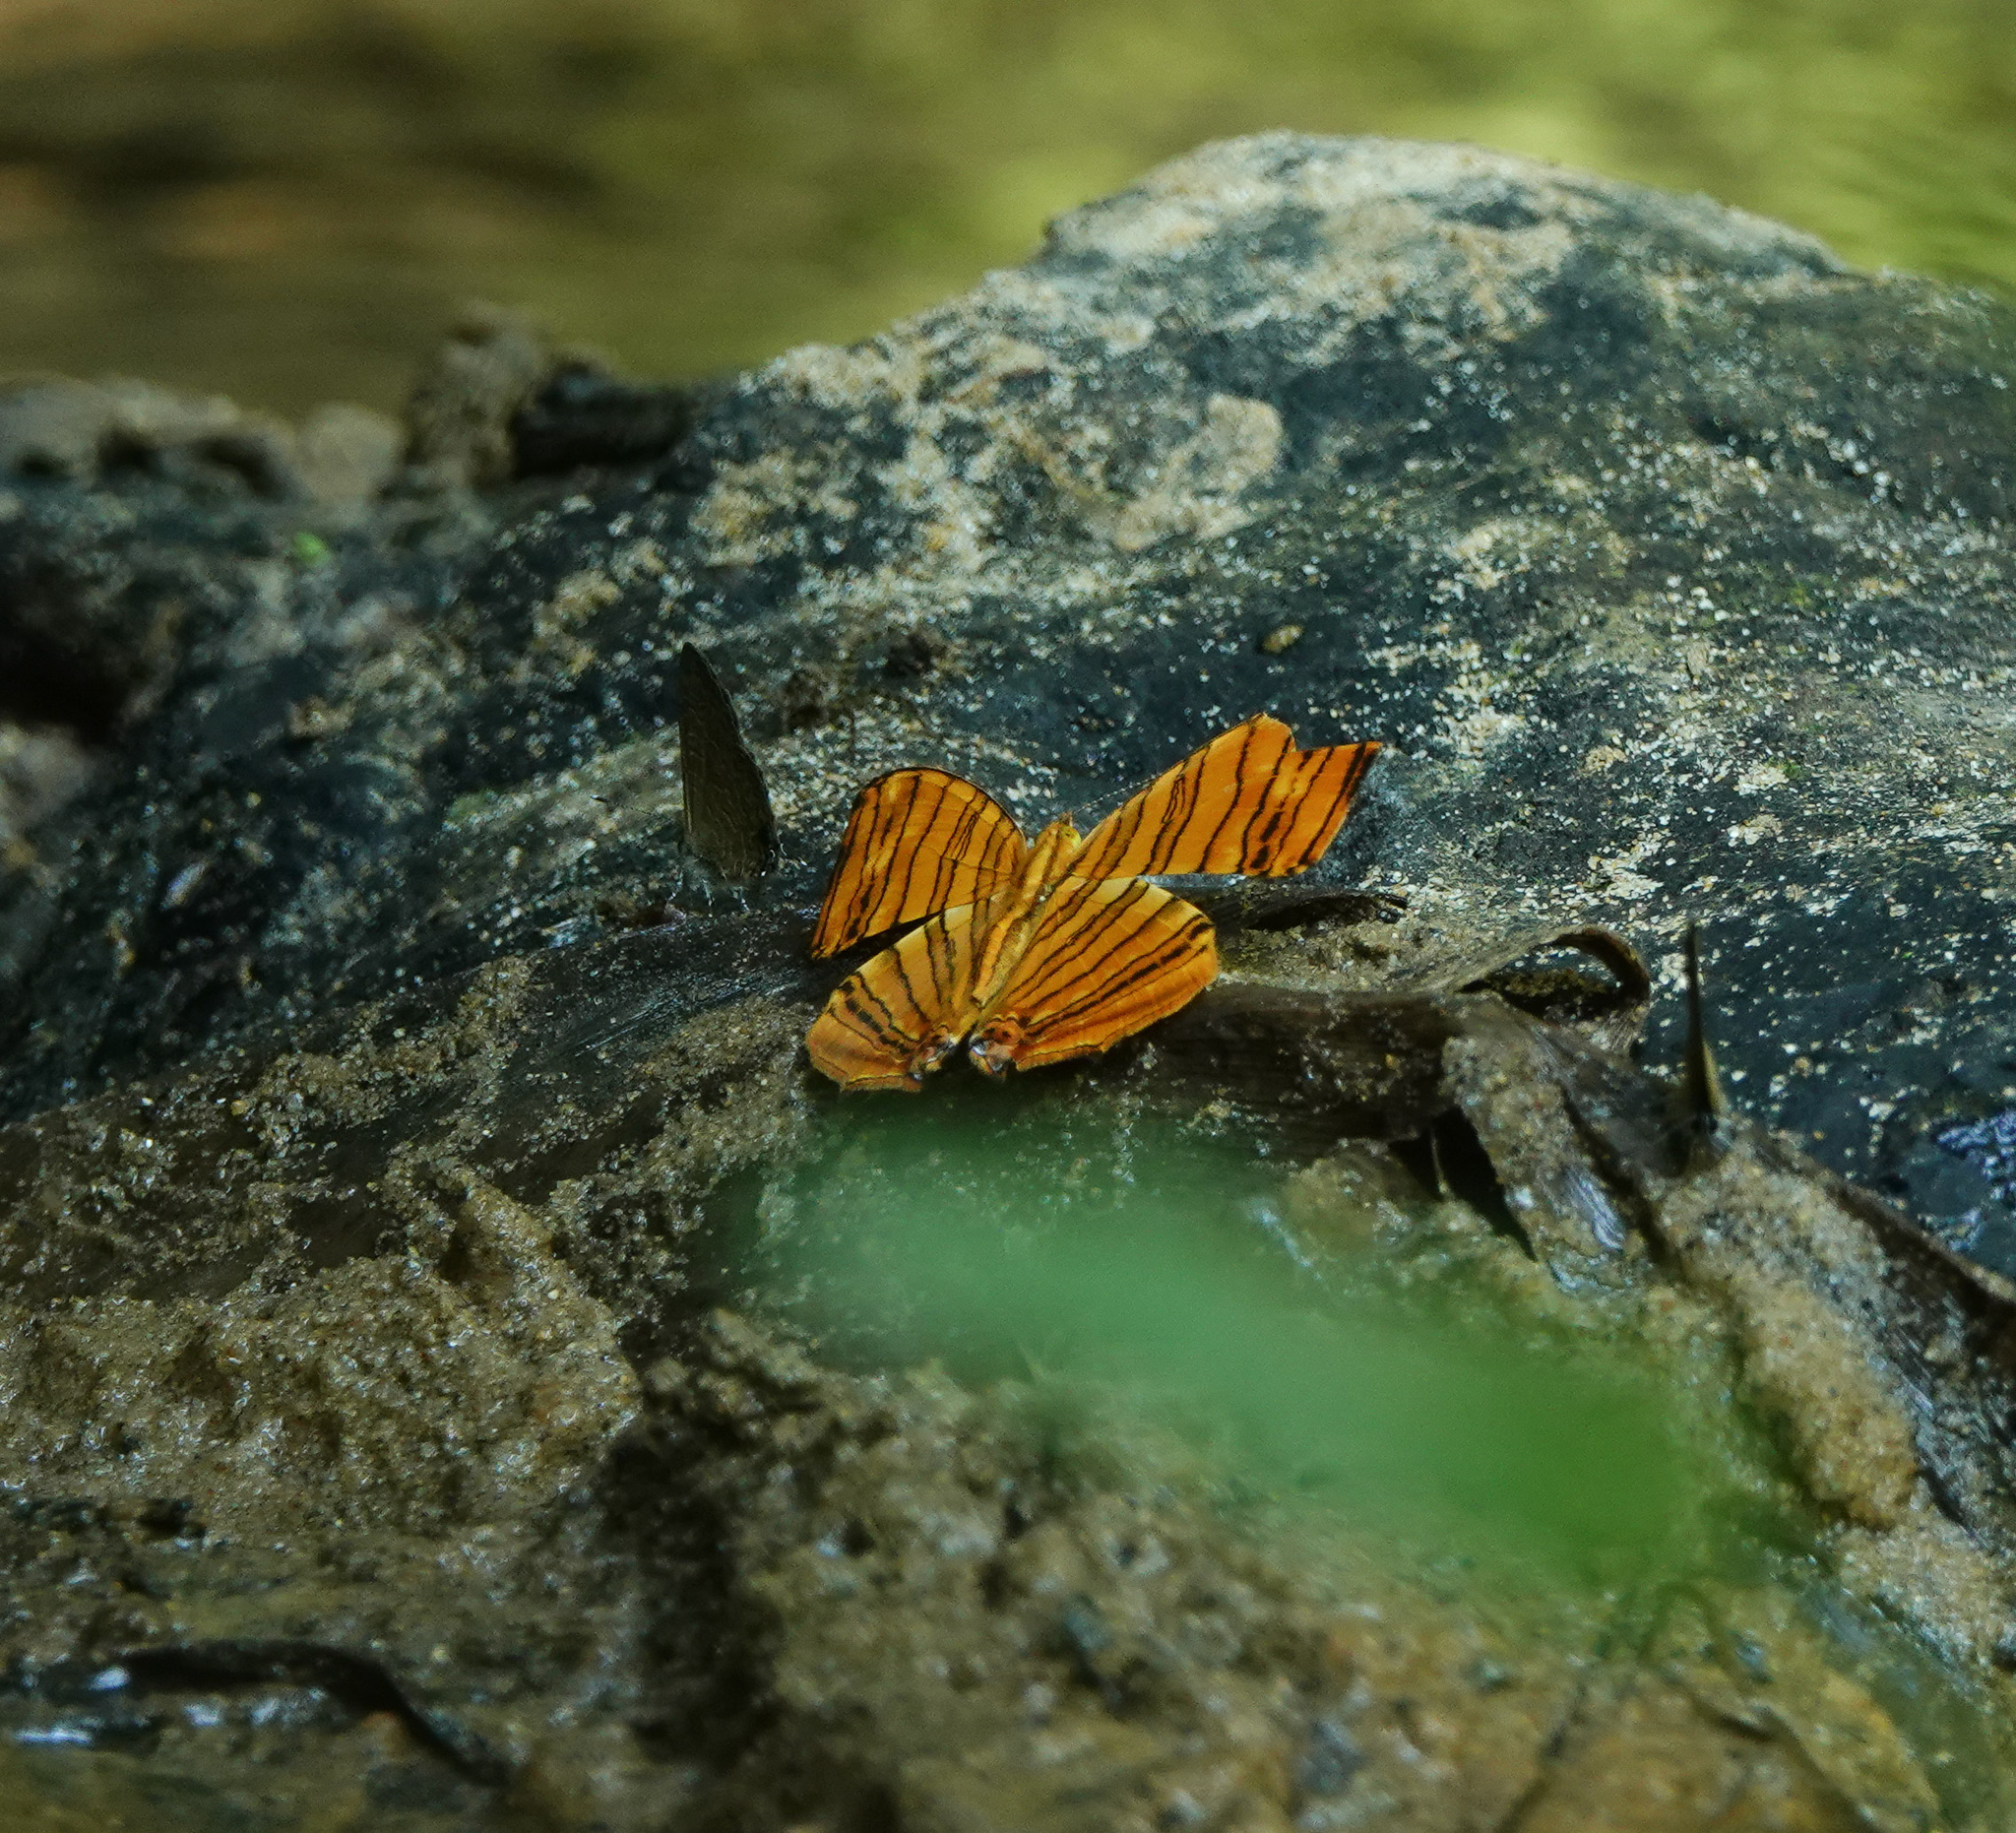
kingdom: Animalia
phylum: Arthropoda
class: Insecta
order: Lepidoptera
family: Nymphalidae
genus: Chersonesia
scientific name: Chersonesia risa
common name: Common maplet
